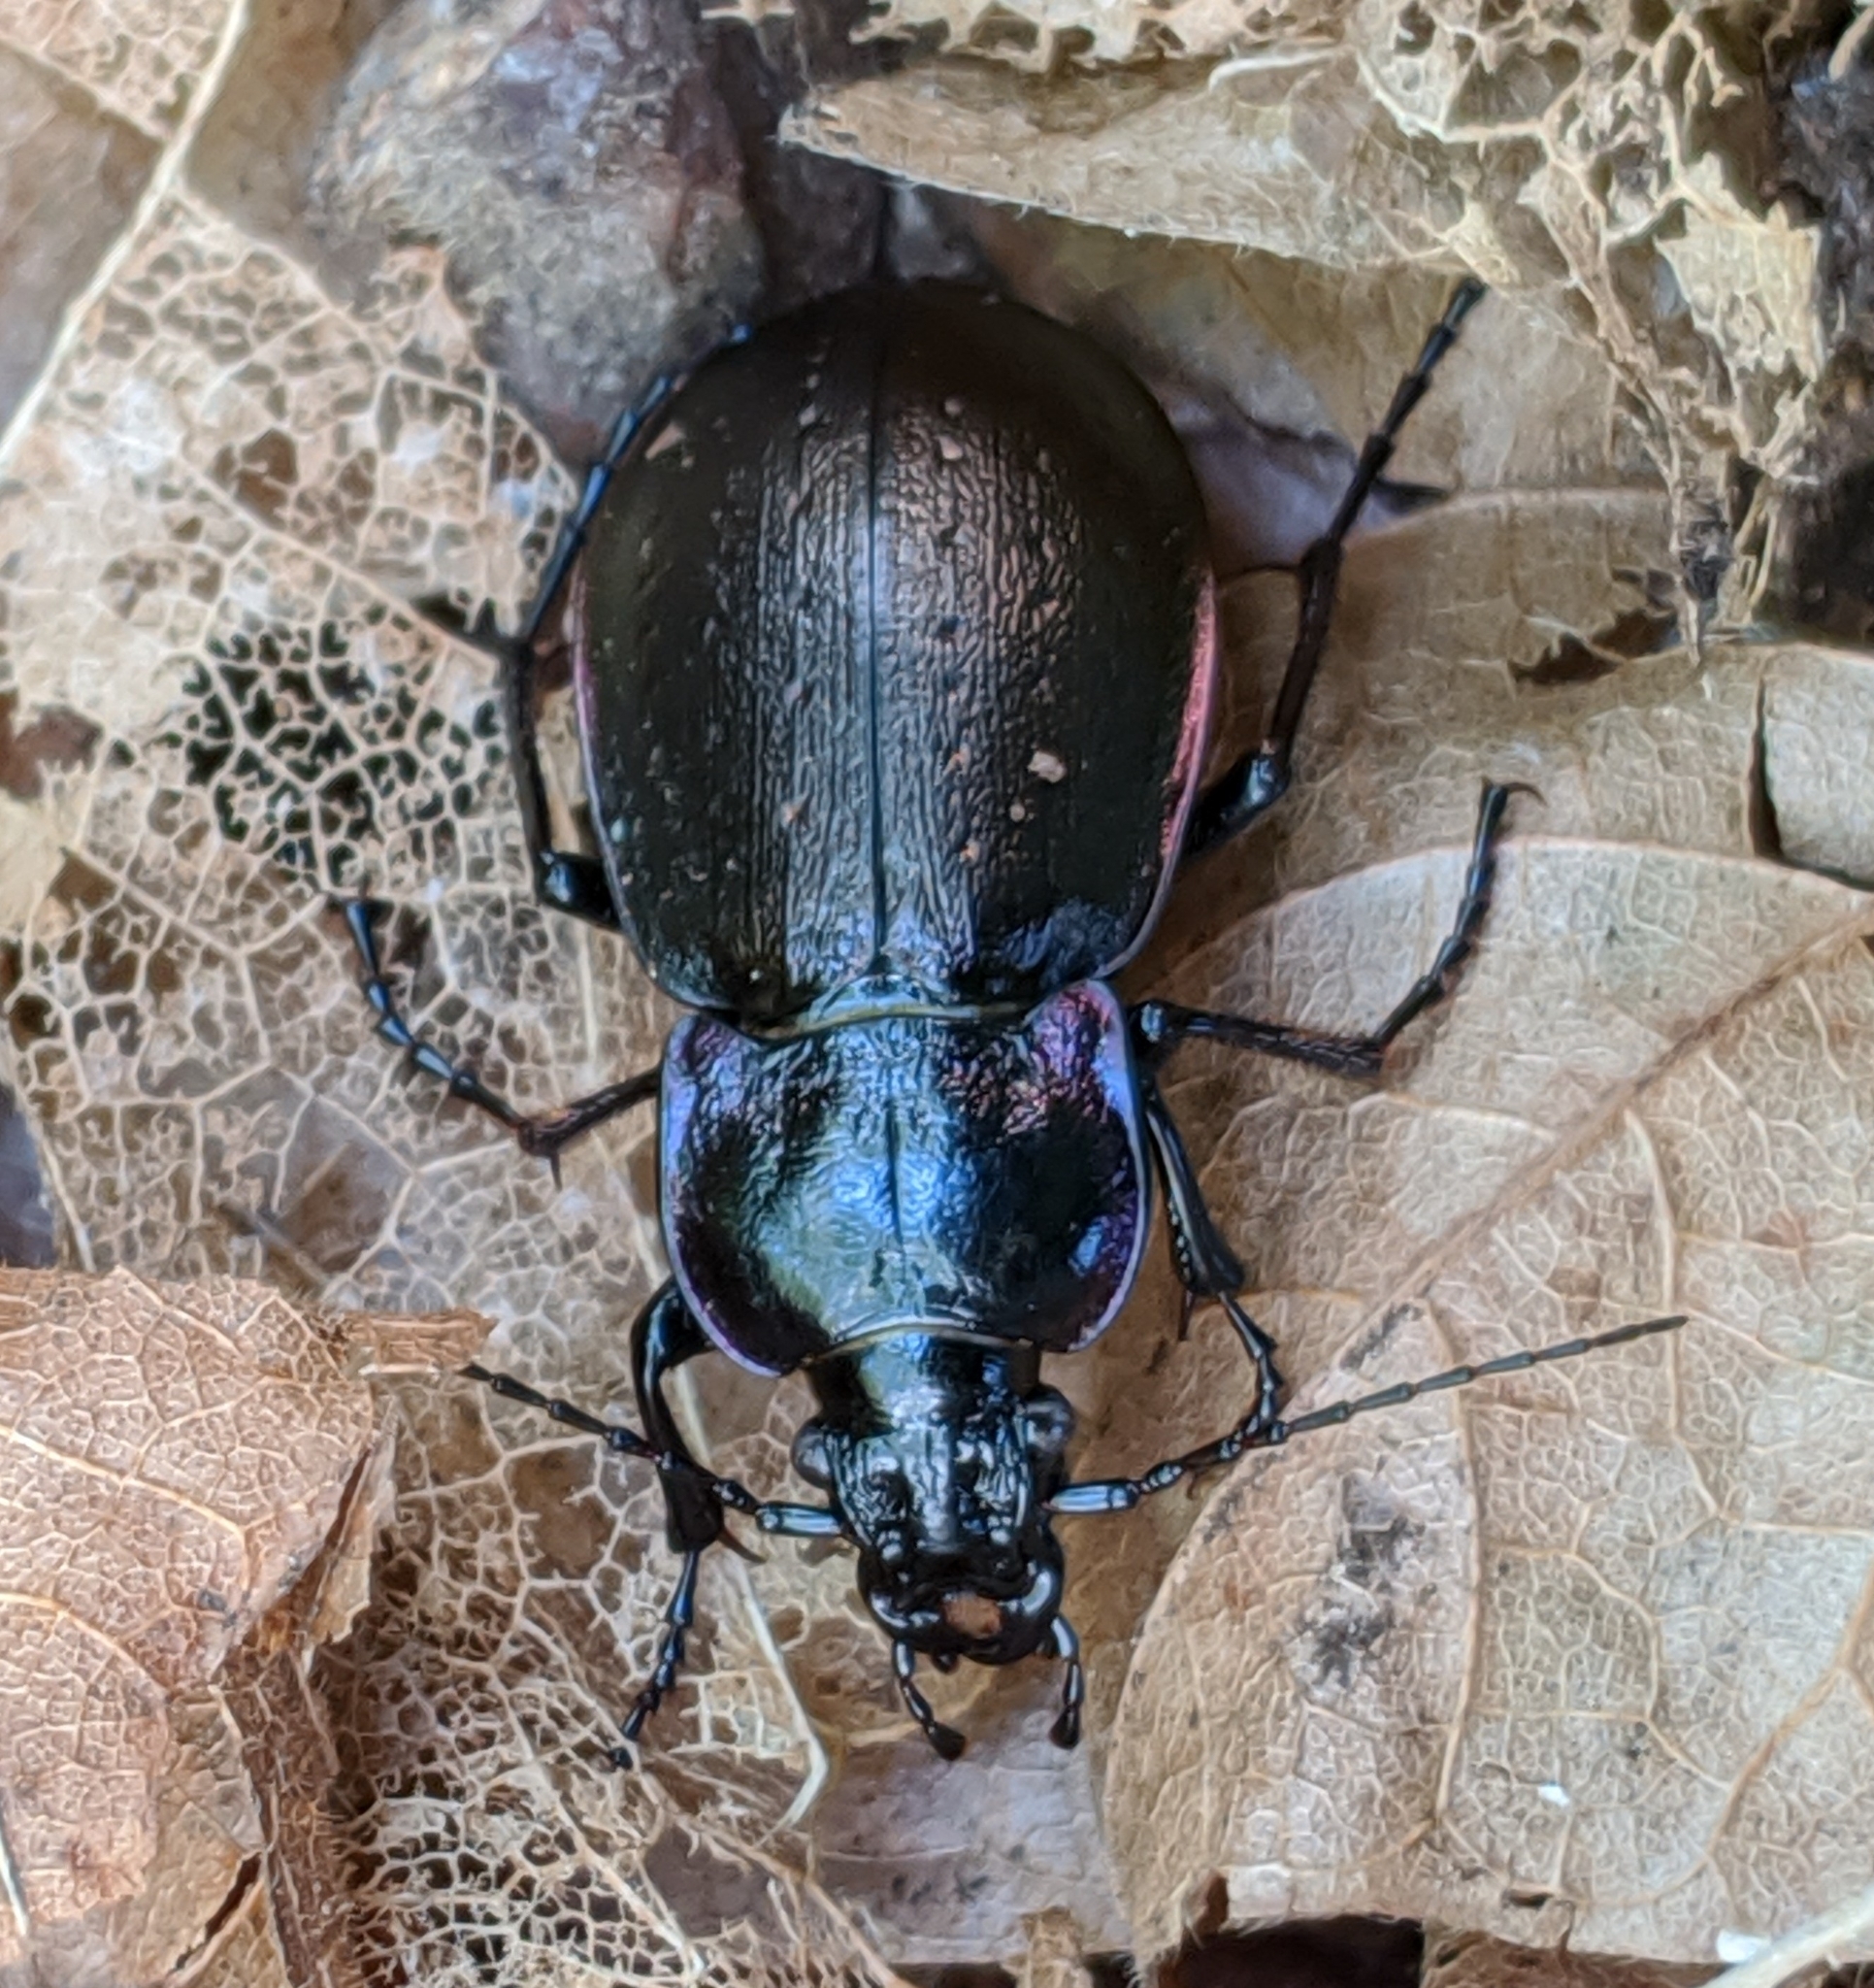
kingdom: Animalia
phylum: Arthropoda
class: Insecta
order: Coleoptera
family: Carabidae
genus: Carabus
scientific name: Carabus nemoralis
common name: European ground beetle
